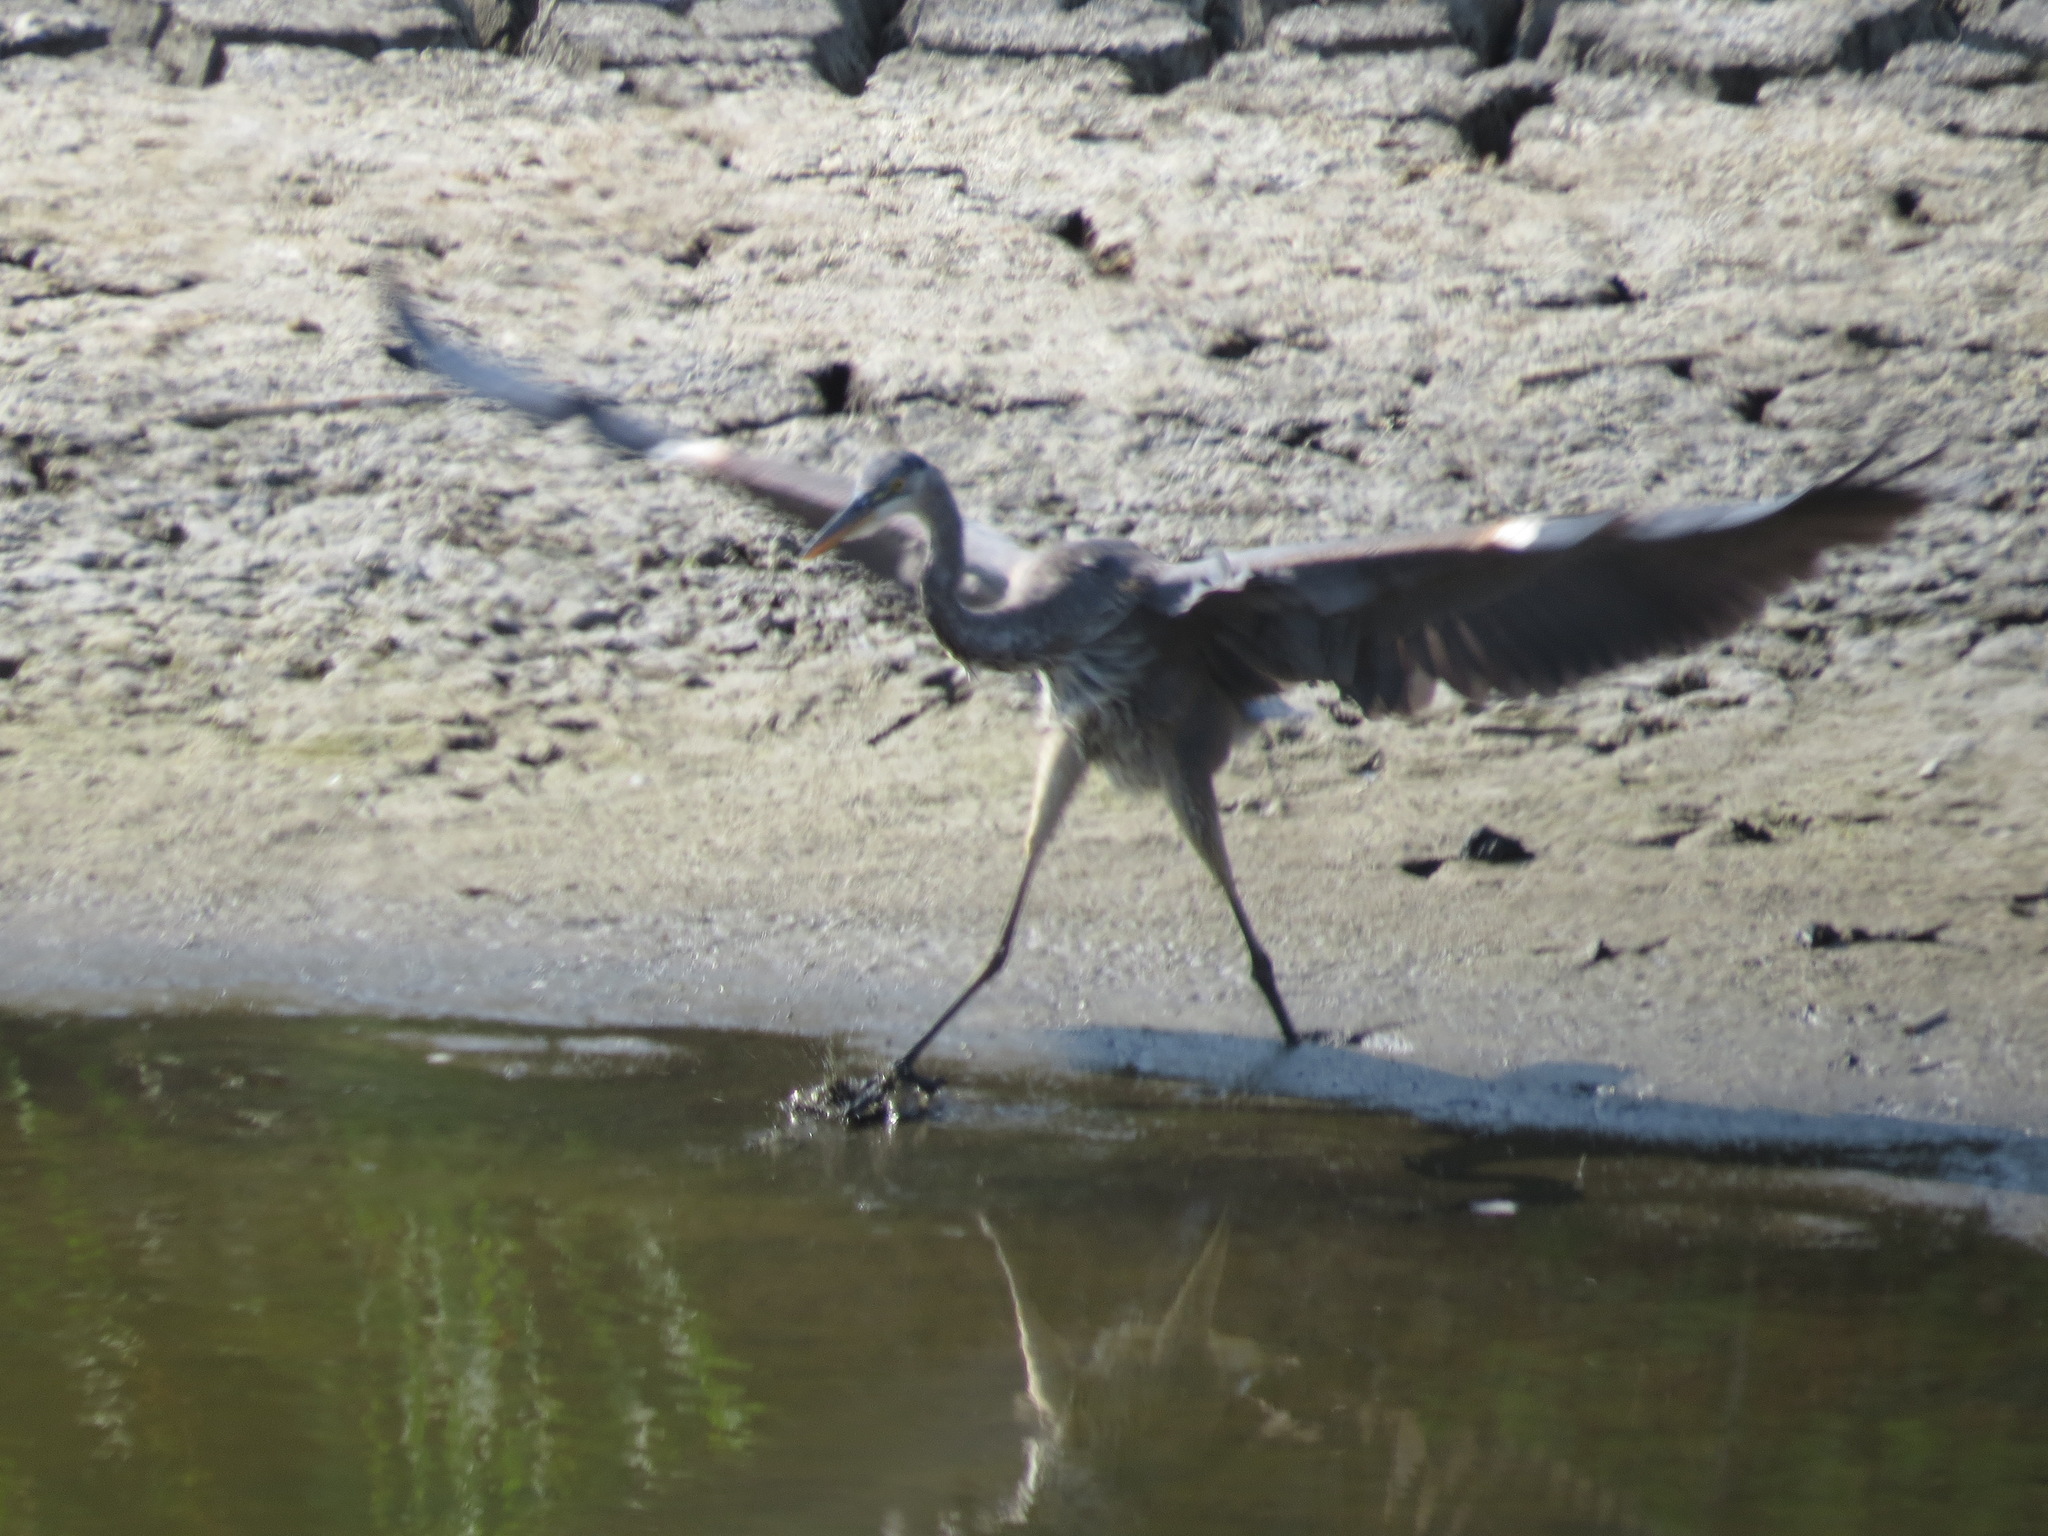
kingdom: Animalia
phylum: Chordata
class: Aves
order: Pelecaniformes
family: Ardeidae
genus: Ardea
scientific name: Ardea herodias
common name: Great blue heron
